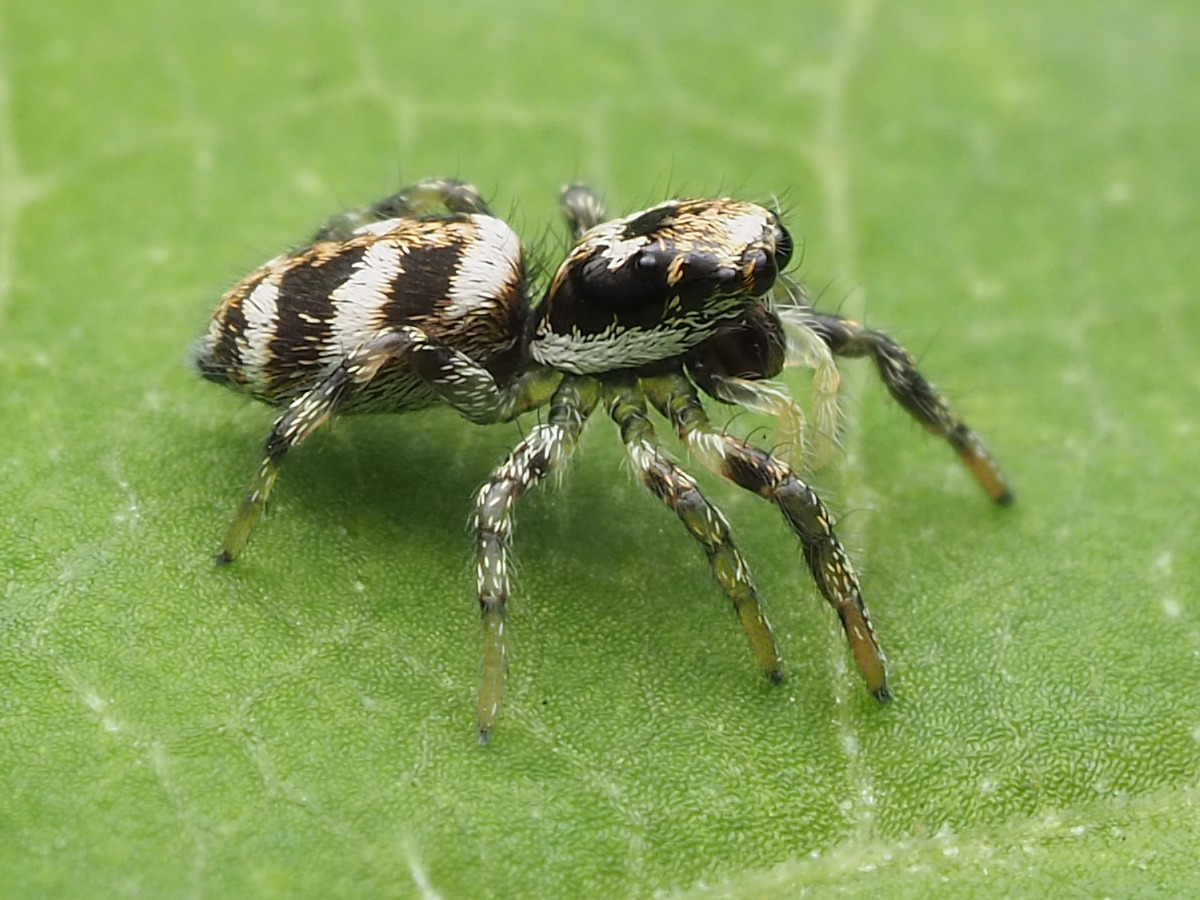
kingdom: Animalia
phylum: Arthropoda
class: Arachnida
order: Araneae
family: Salticidae
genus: Salticus
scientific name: Salticus scenicus
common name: Zebra jumper
